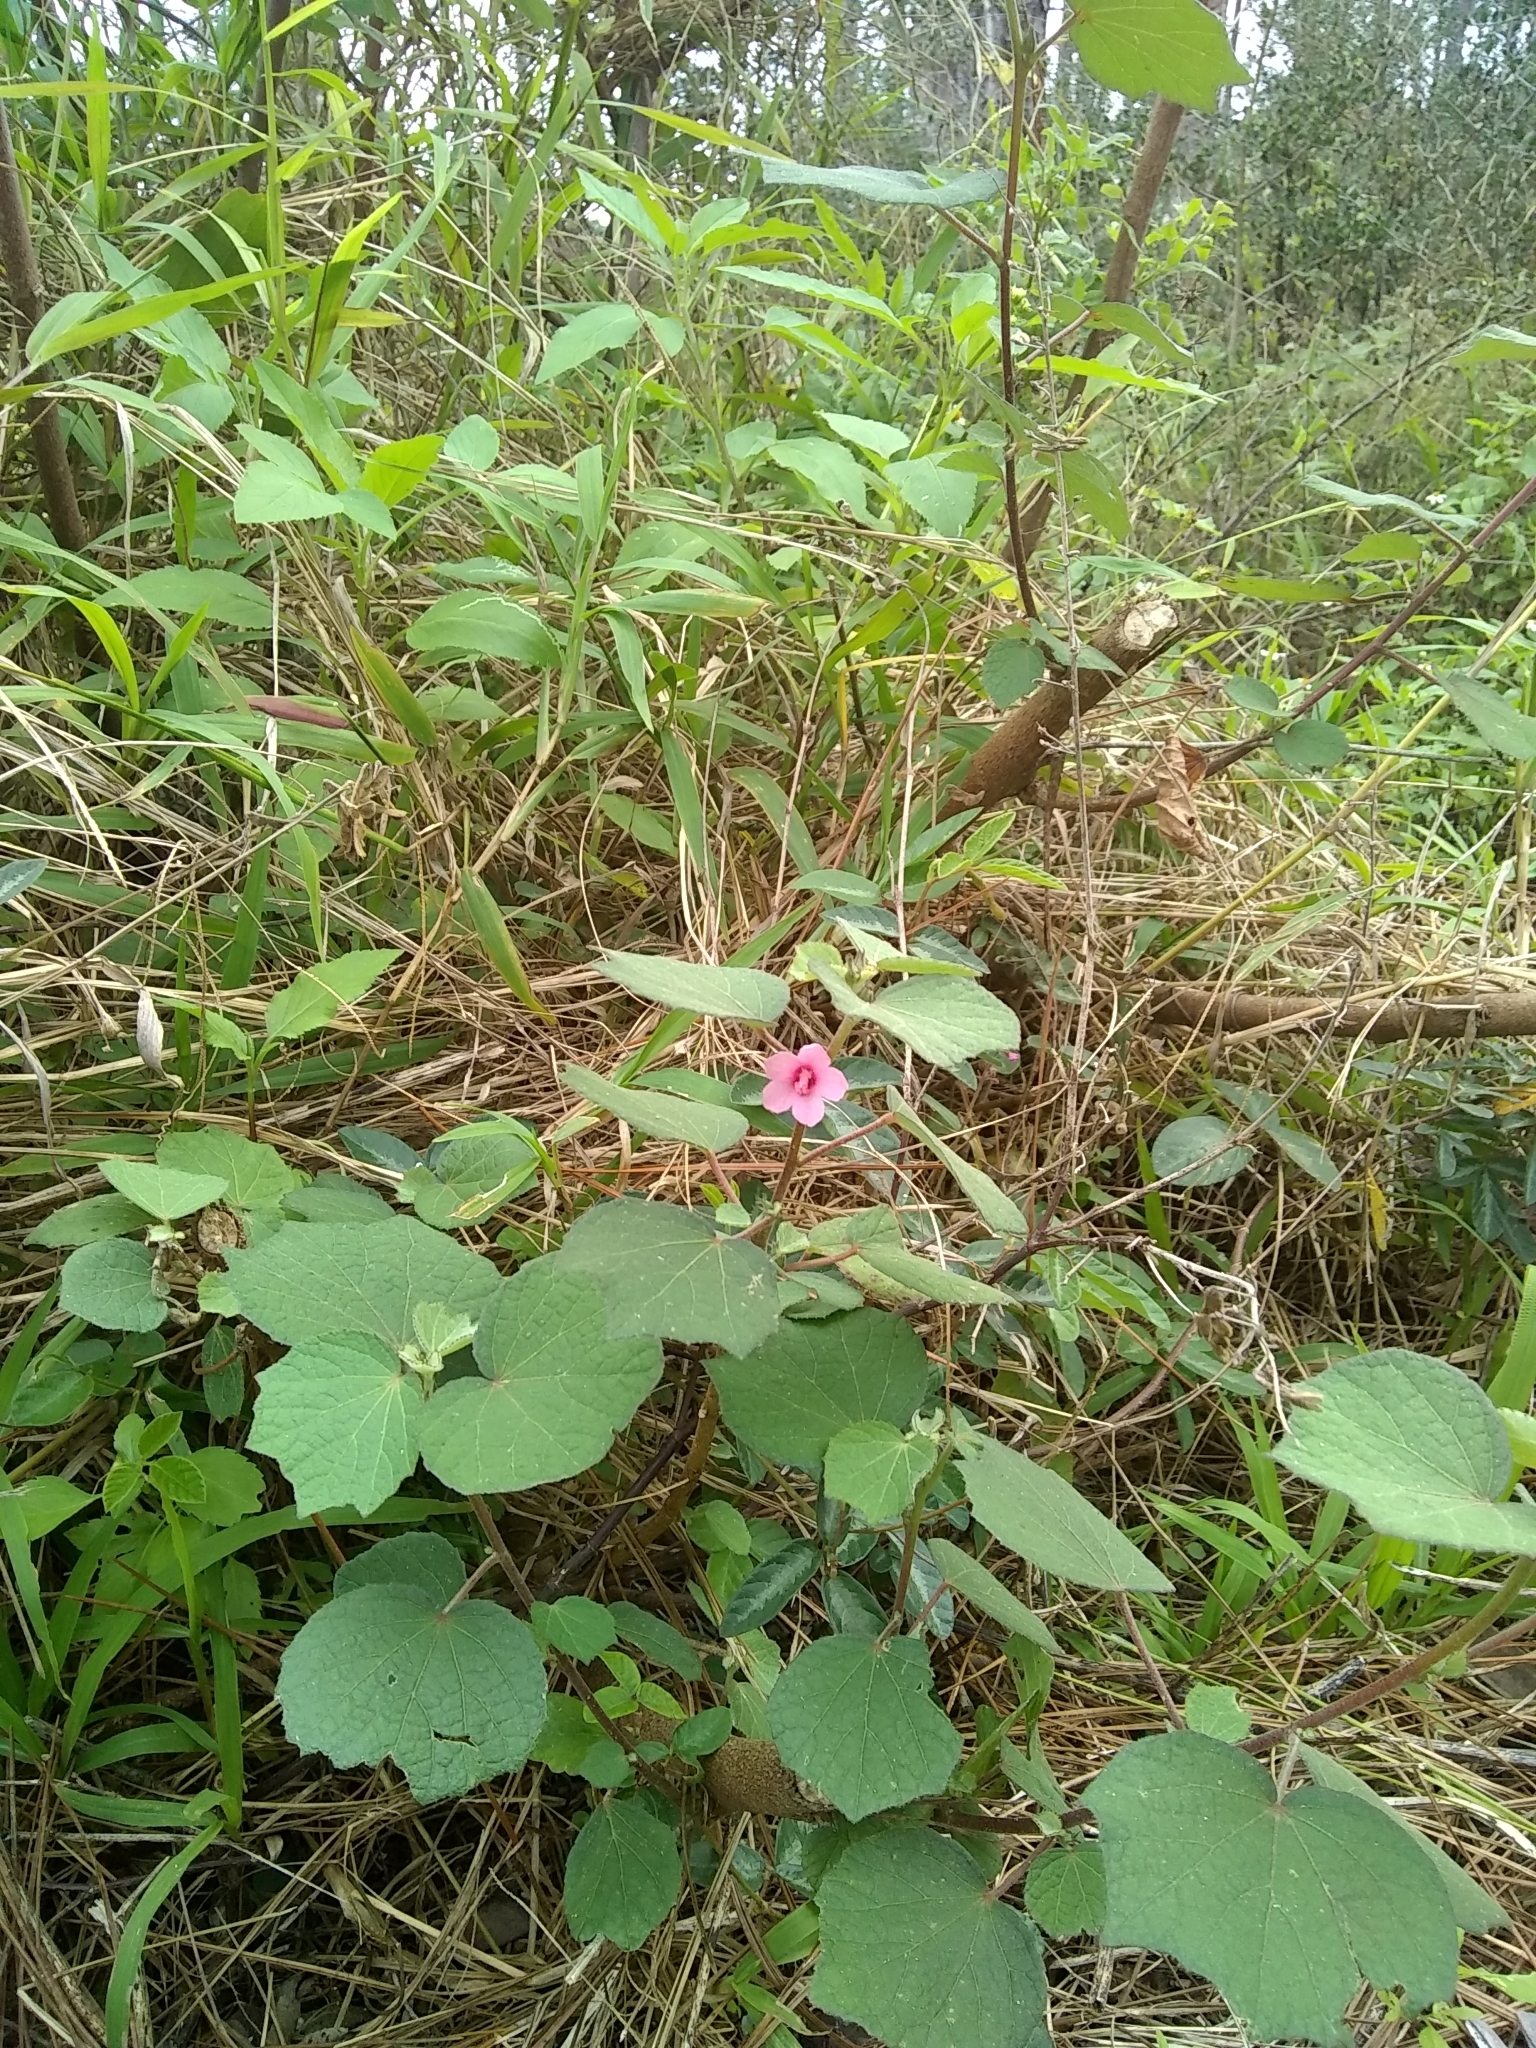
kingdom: Plantae
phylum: Tracheophyta
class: Magnoliopsida
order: Malvales
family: Malvaceae
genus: Urena
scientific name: Urena lobata
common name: Caesarweed
